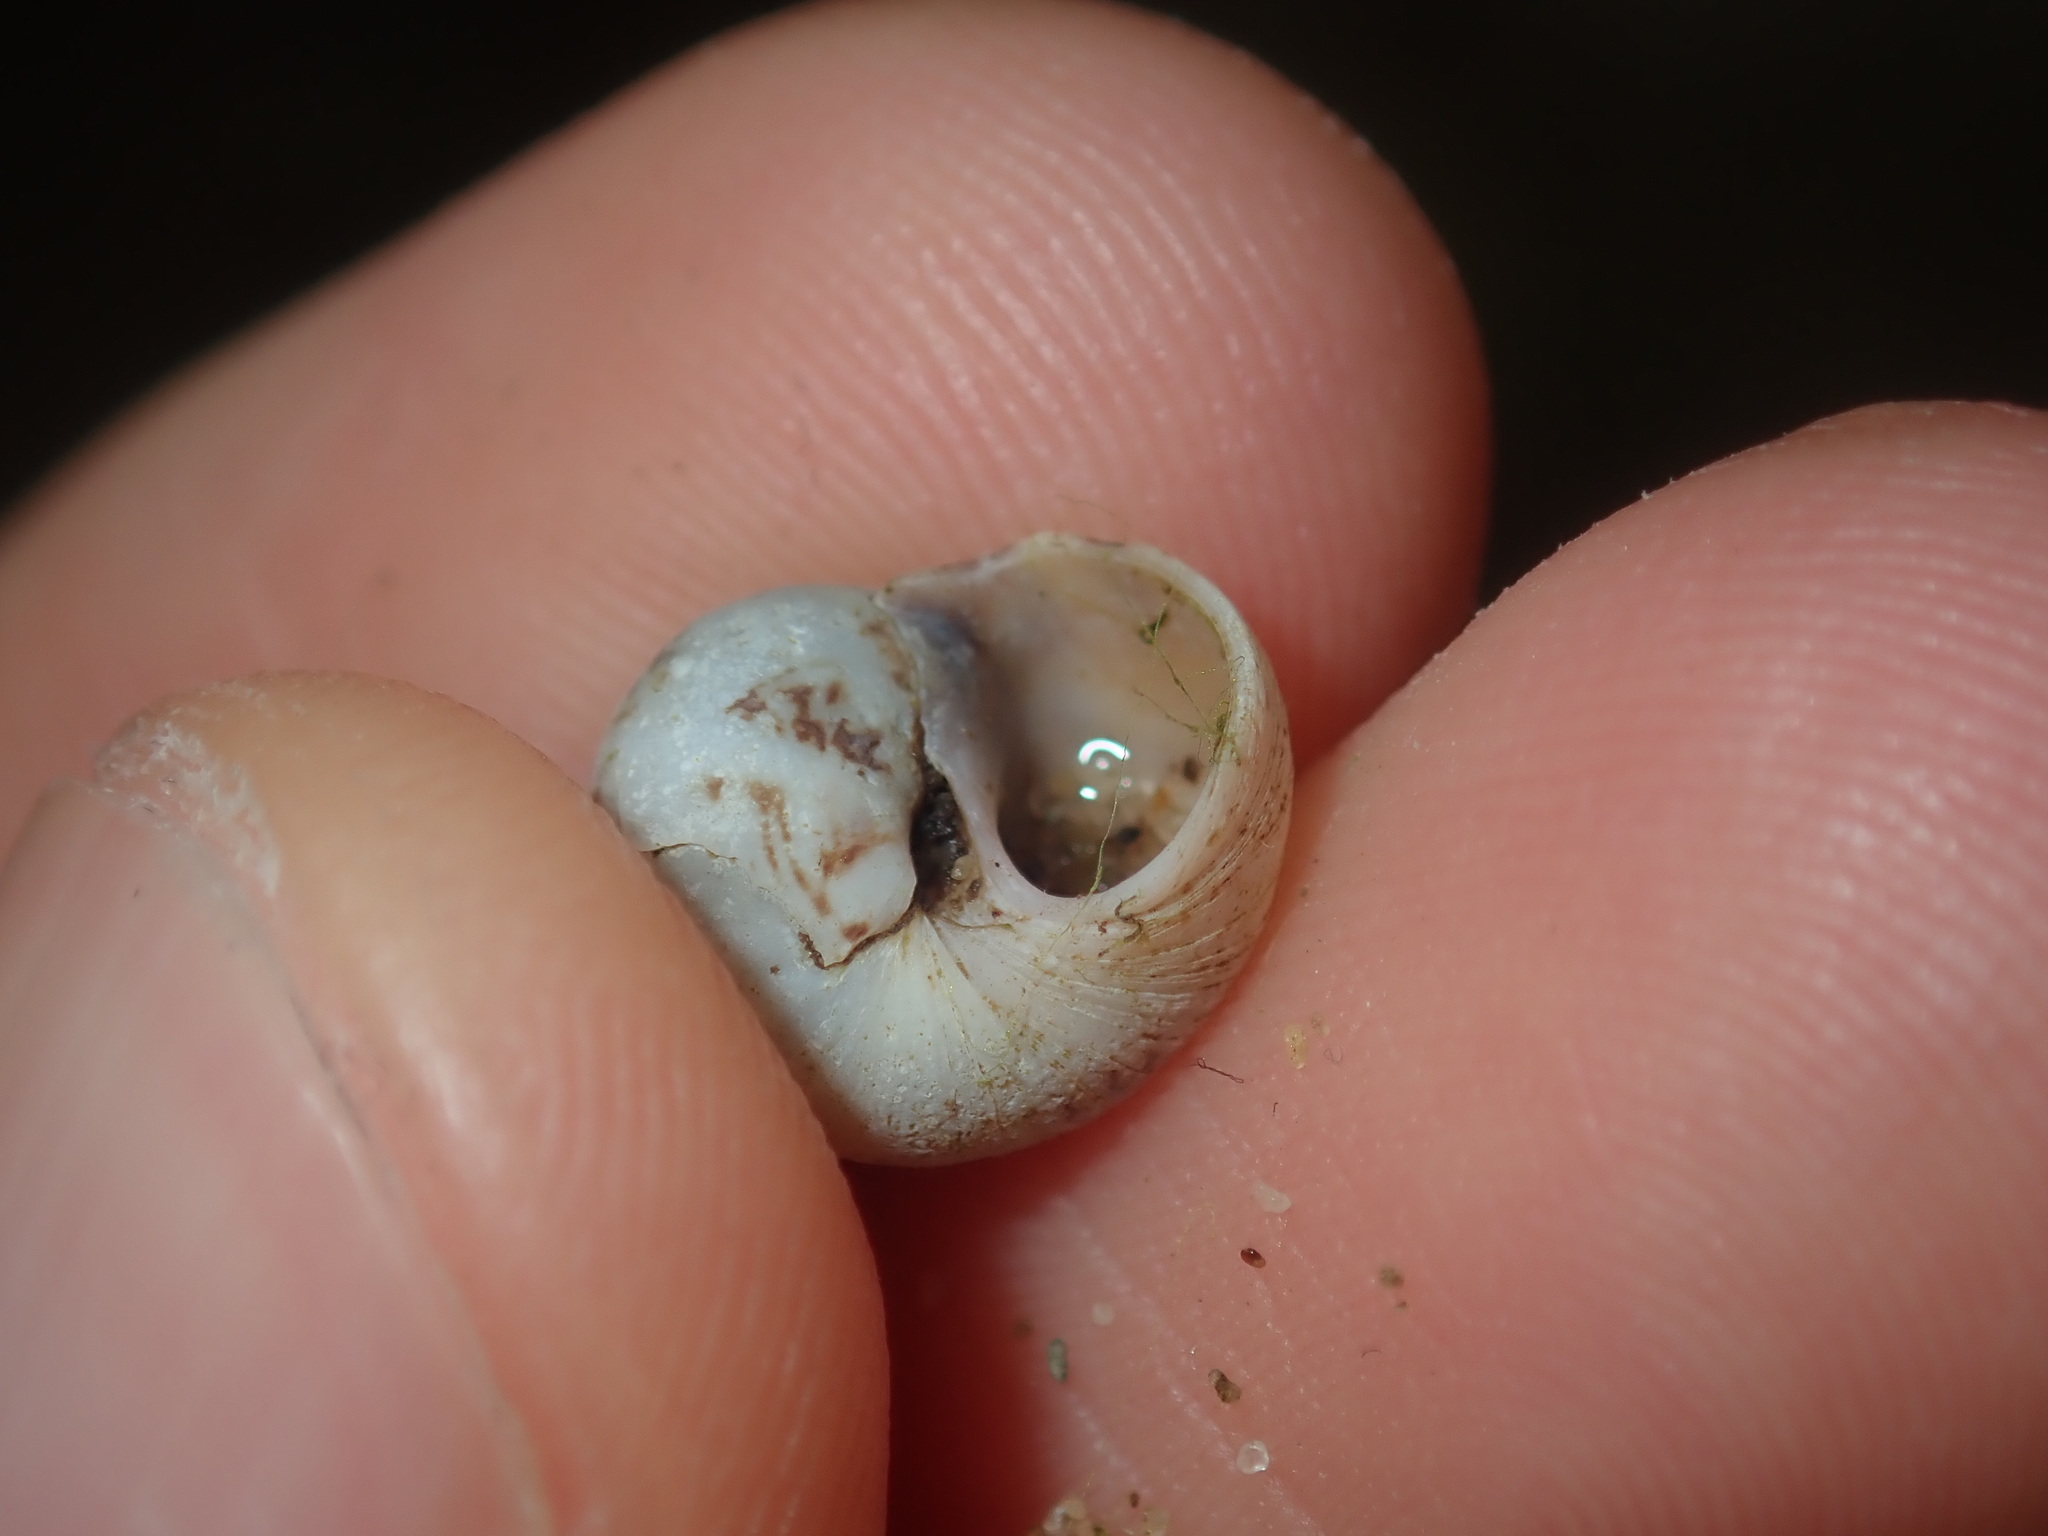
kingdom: Animalia
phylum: Mollusca
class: Gastropoda
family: Amphibolidae
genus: Phallomedusa
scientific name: Phallomedusa solida
